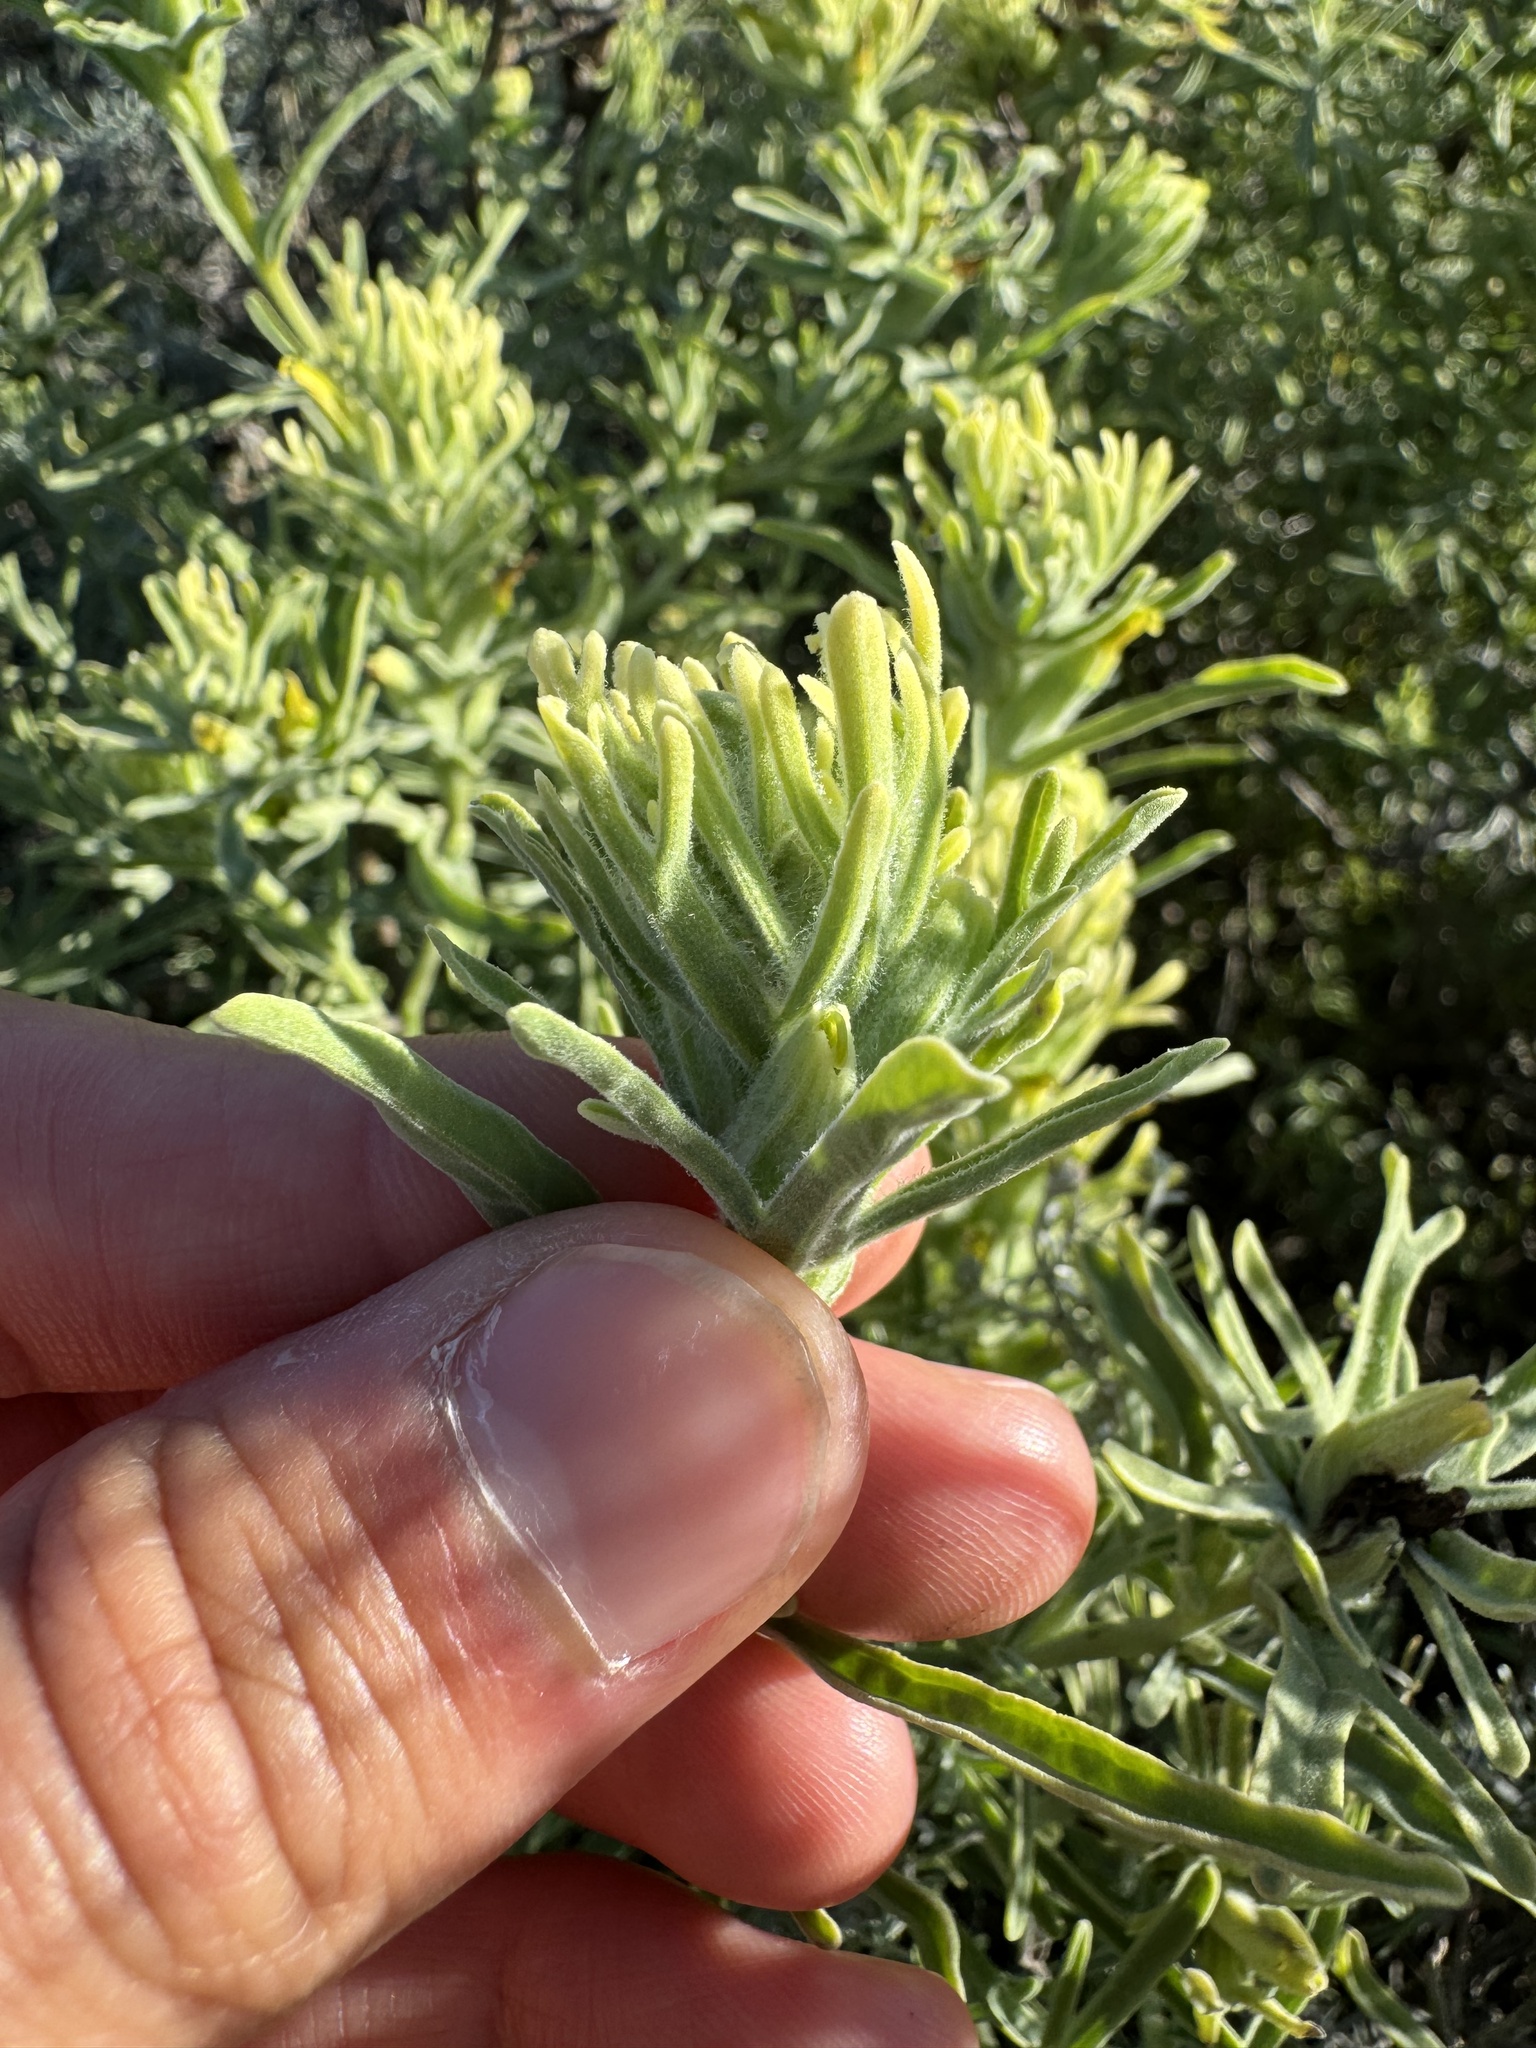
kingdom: Plantae
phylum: Tracheophyta
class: Magnoliopsida
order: Lamiales
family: Orobanchaceae
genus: Castilleja
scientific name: Castilleja grisea
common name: San clemente island indian paintbrush
